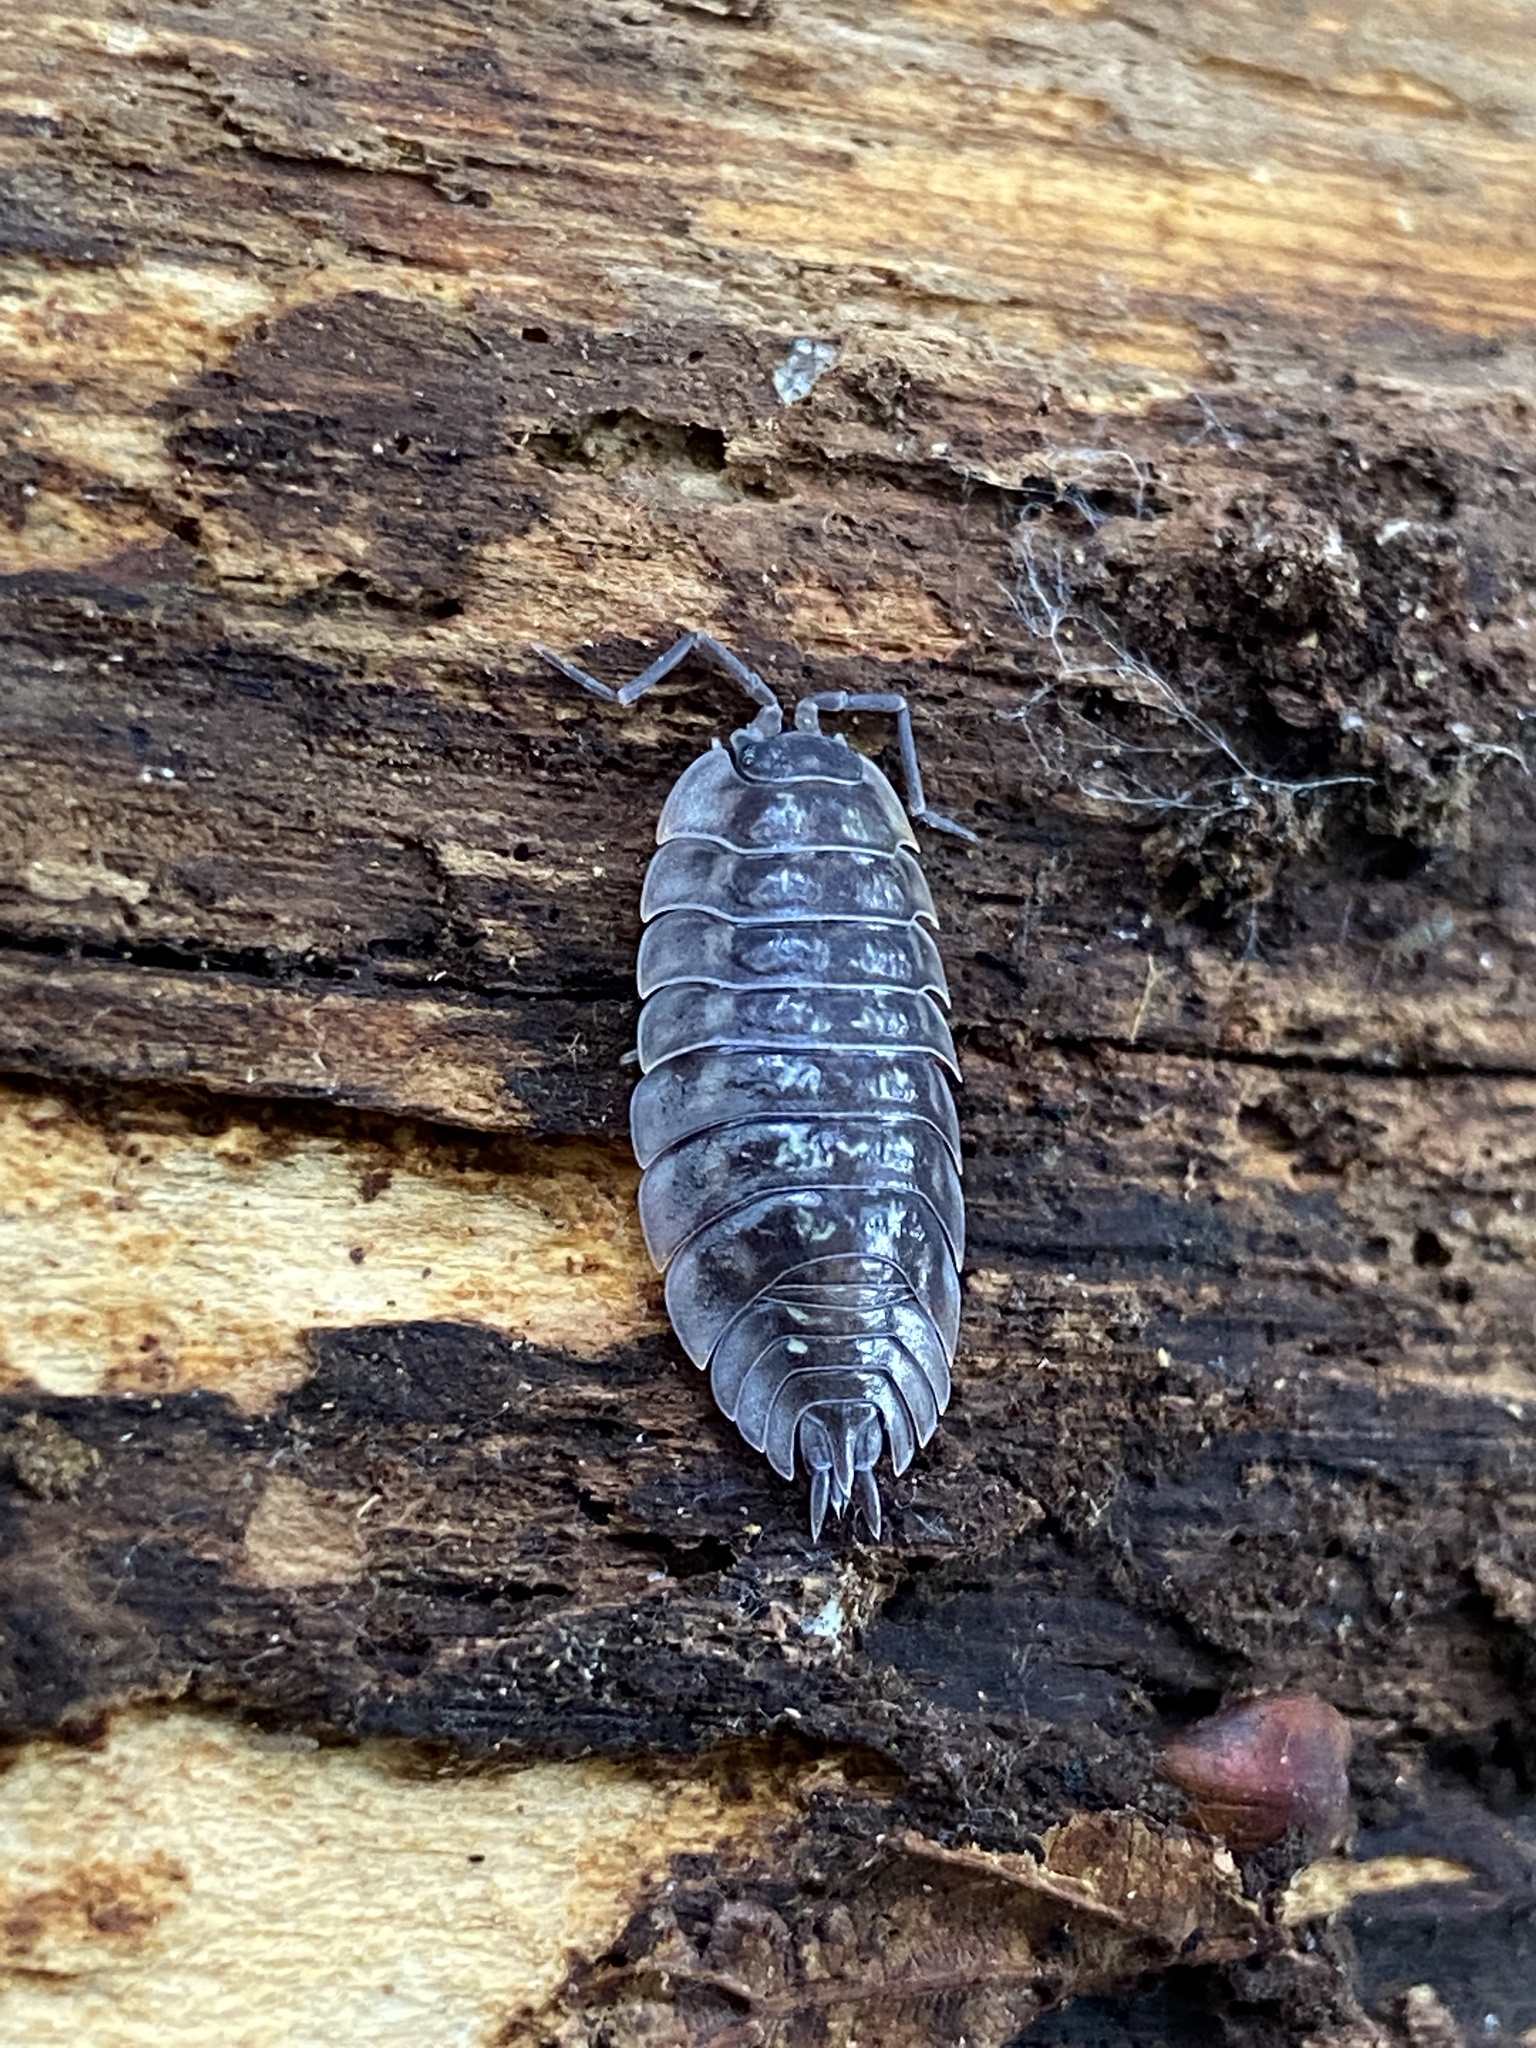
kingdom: Animalia
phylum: Arthropoda
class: Malacostraca
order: Isopoda
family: Oniscidae
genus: Oniscus
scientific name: Oniscus asellus
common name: Common shiny woodlouse
